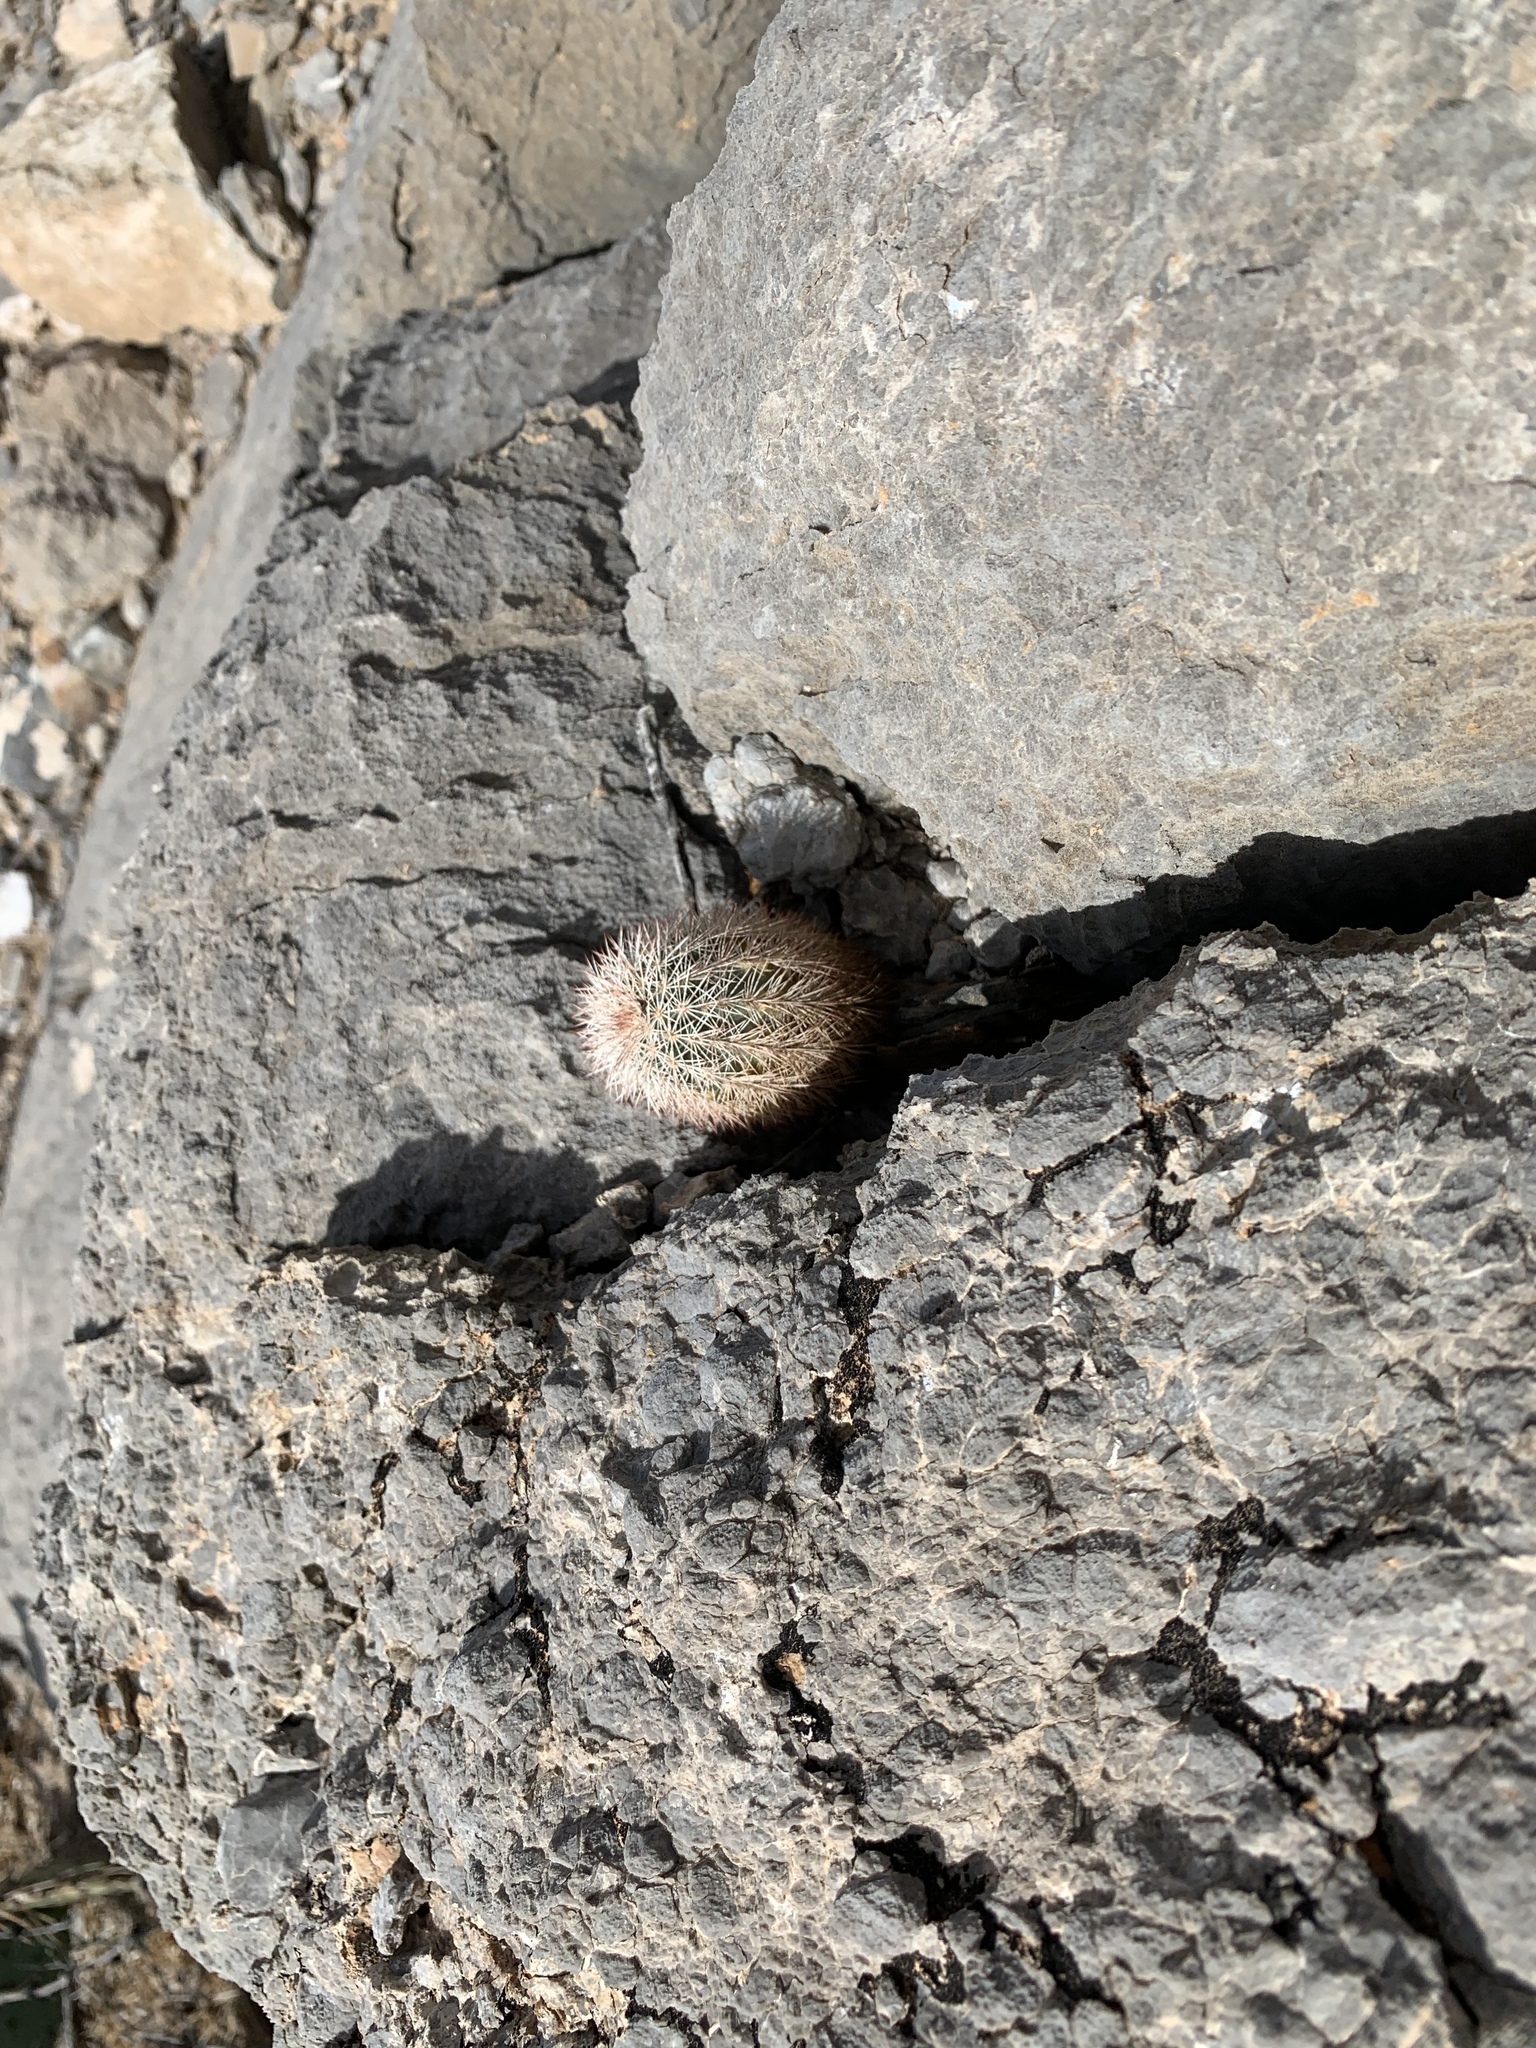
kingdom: Plantae
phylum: Tracheophyta
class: Magnoliopsida
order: Caryophyllales
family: Cactaceae
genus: Echinocereus
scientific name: Echinocereus dasyacanthus
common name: Spiny hedgehog cactus
